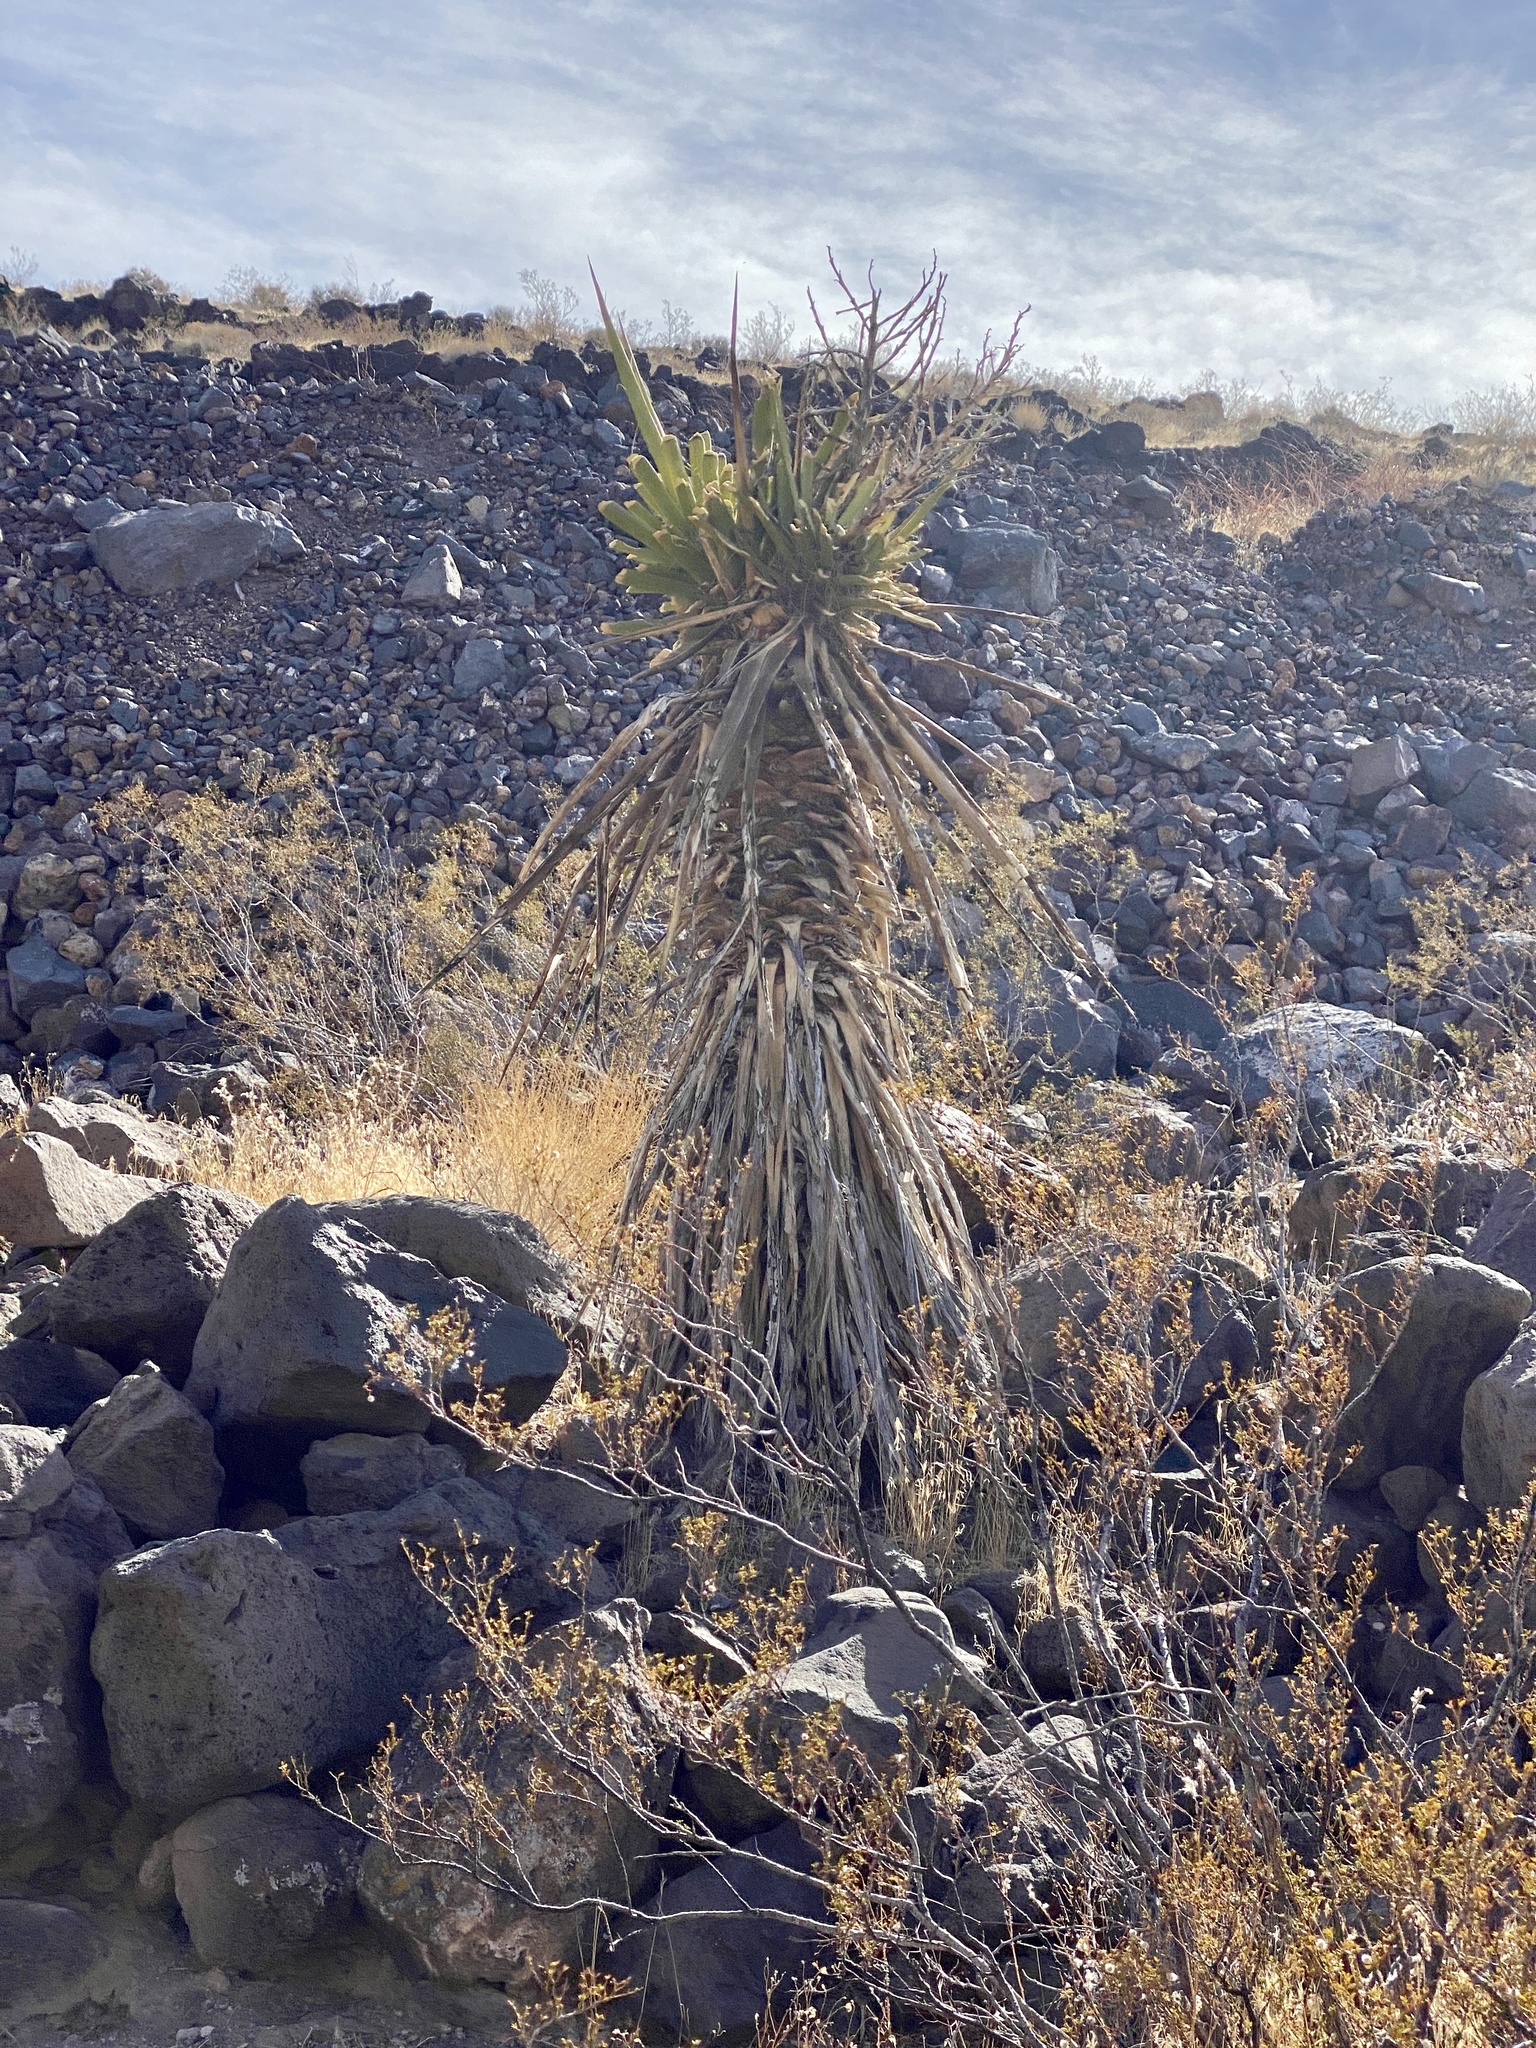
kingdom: Plantae
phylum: Tracheophyta
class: Liliopsida
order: Asparagales
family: Asparagaceae
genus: Yucca
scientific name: Yucca schidigera
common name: Mojave yucca
